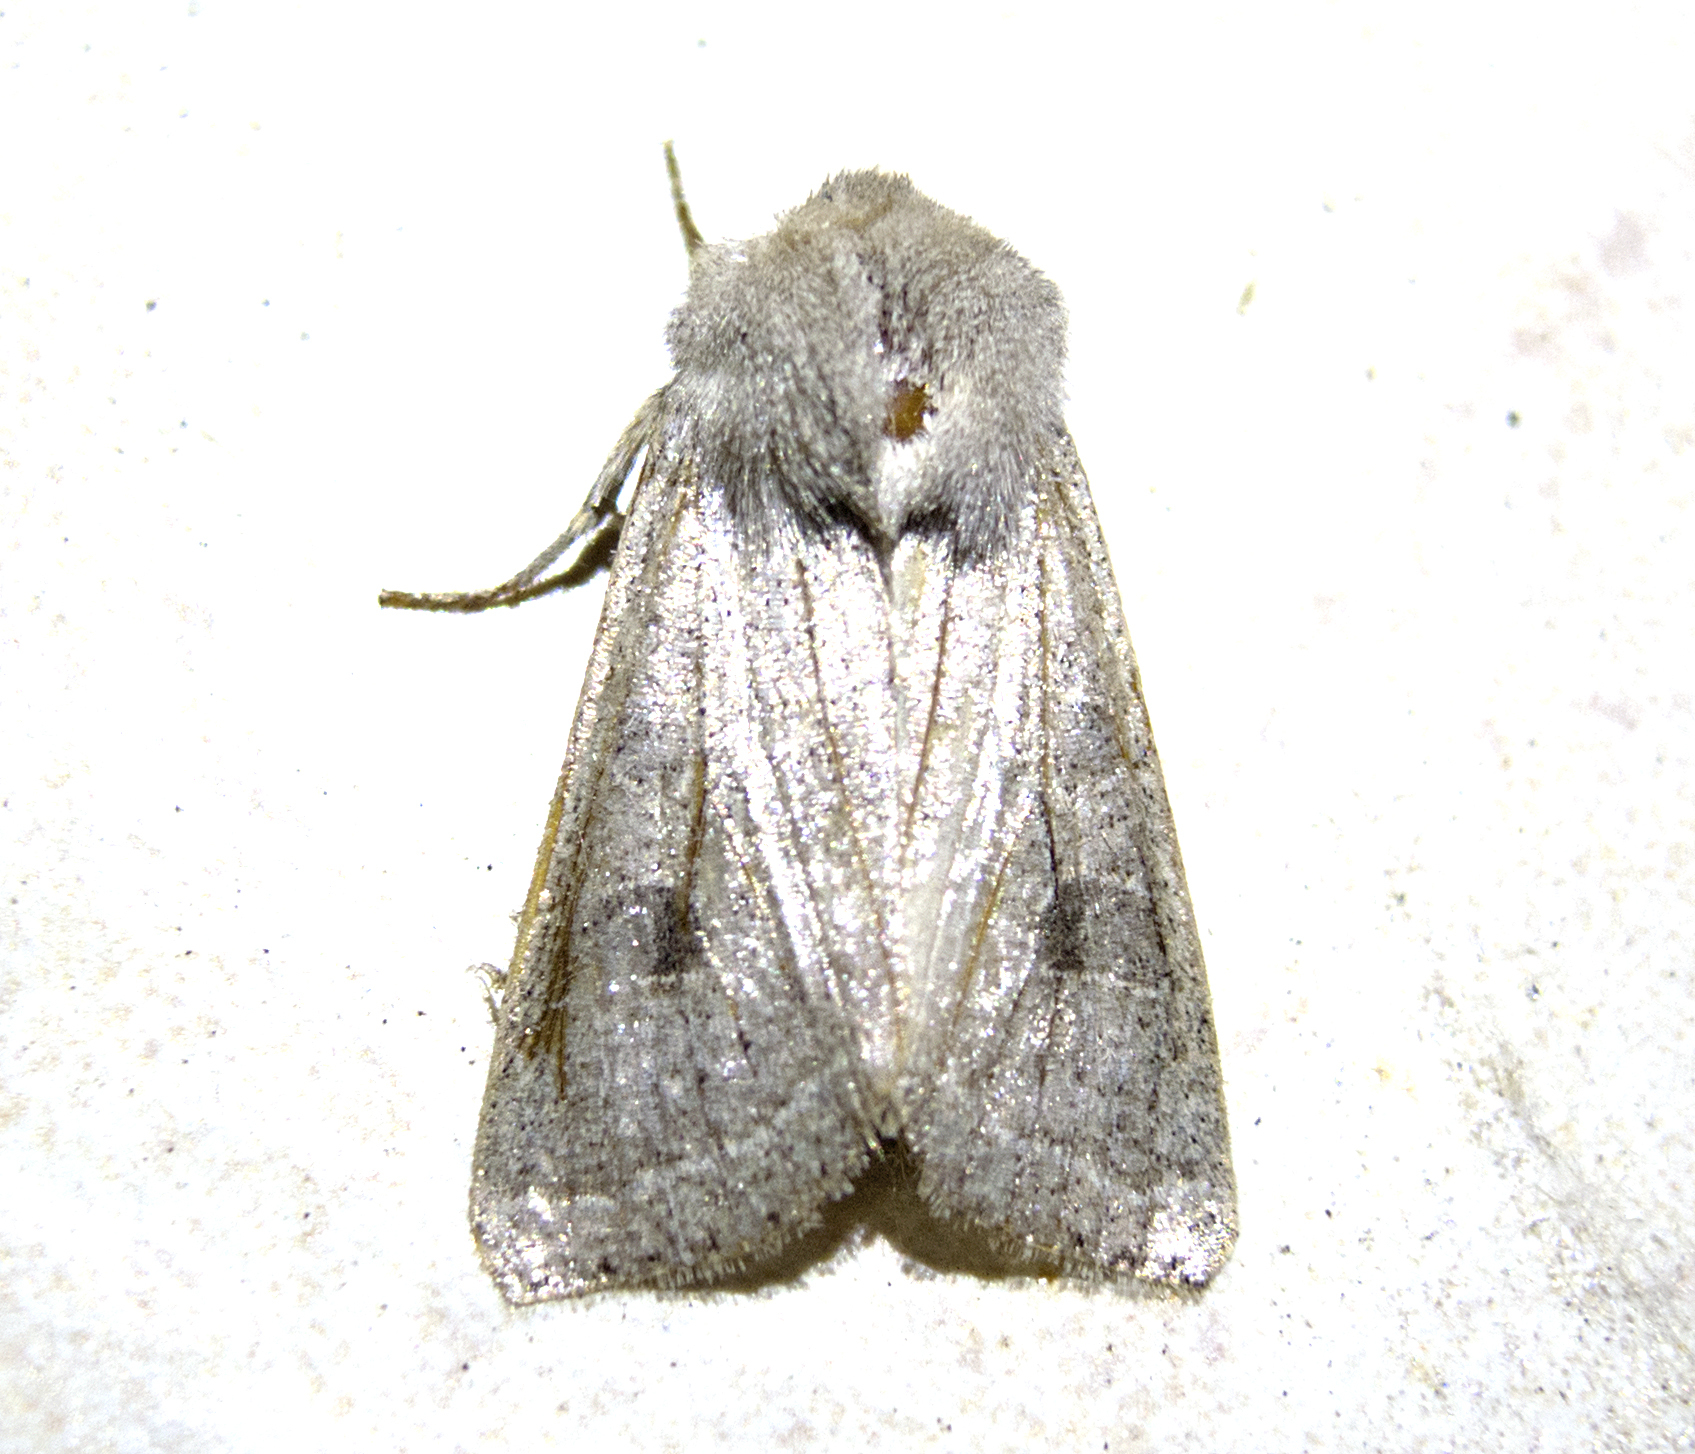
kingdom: Animalia
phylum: Arthropoda
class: Insecta
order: Lepidoptera
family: Noctuidae
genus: Orthosia
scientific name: Orthosia gracilis
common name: Powdered quaker
